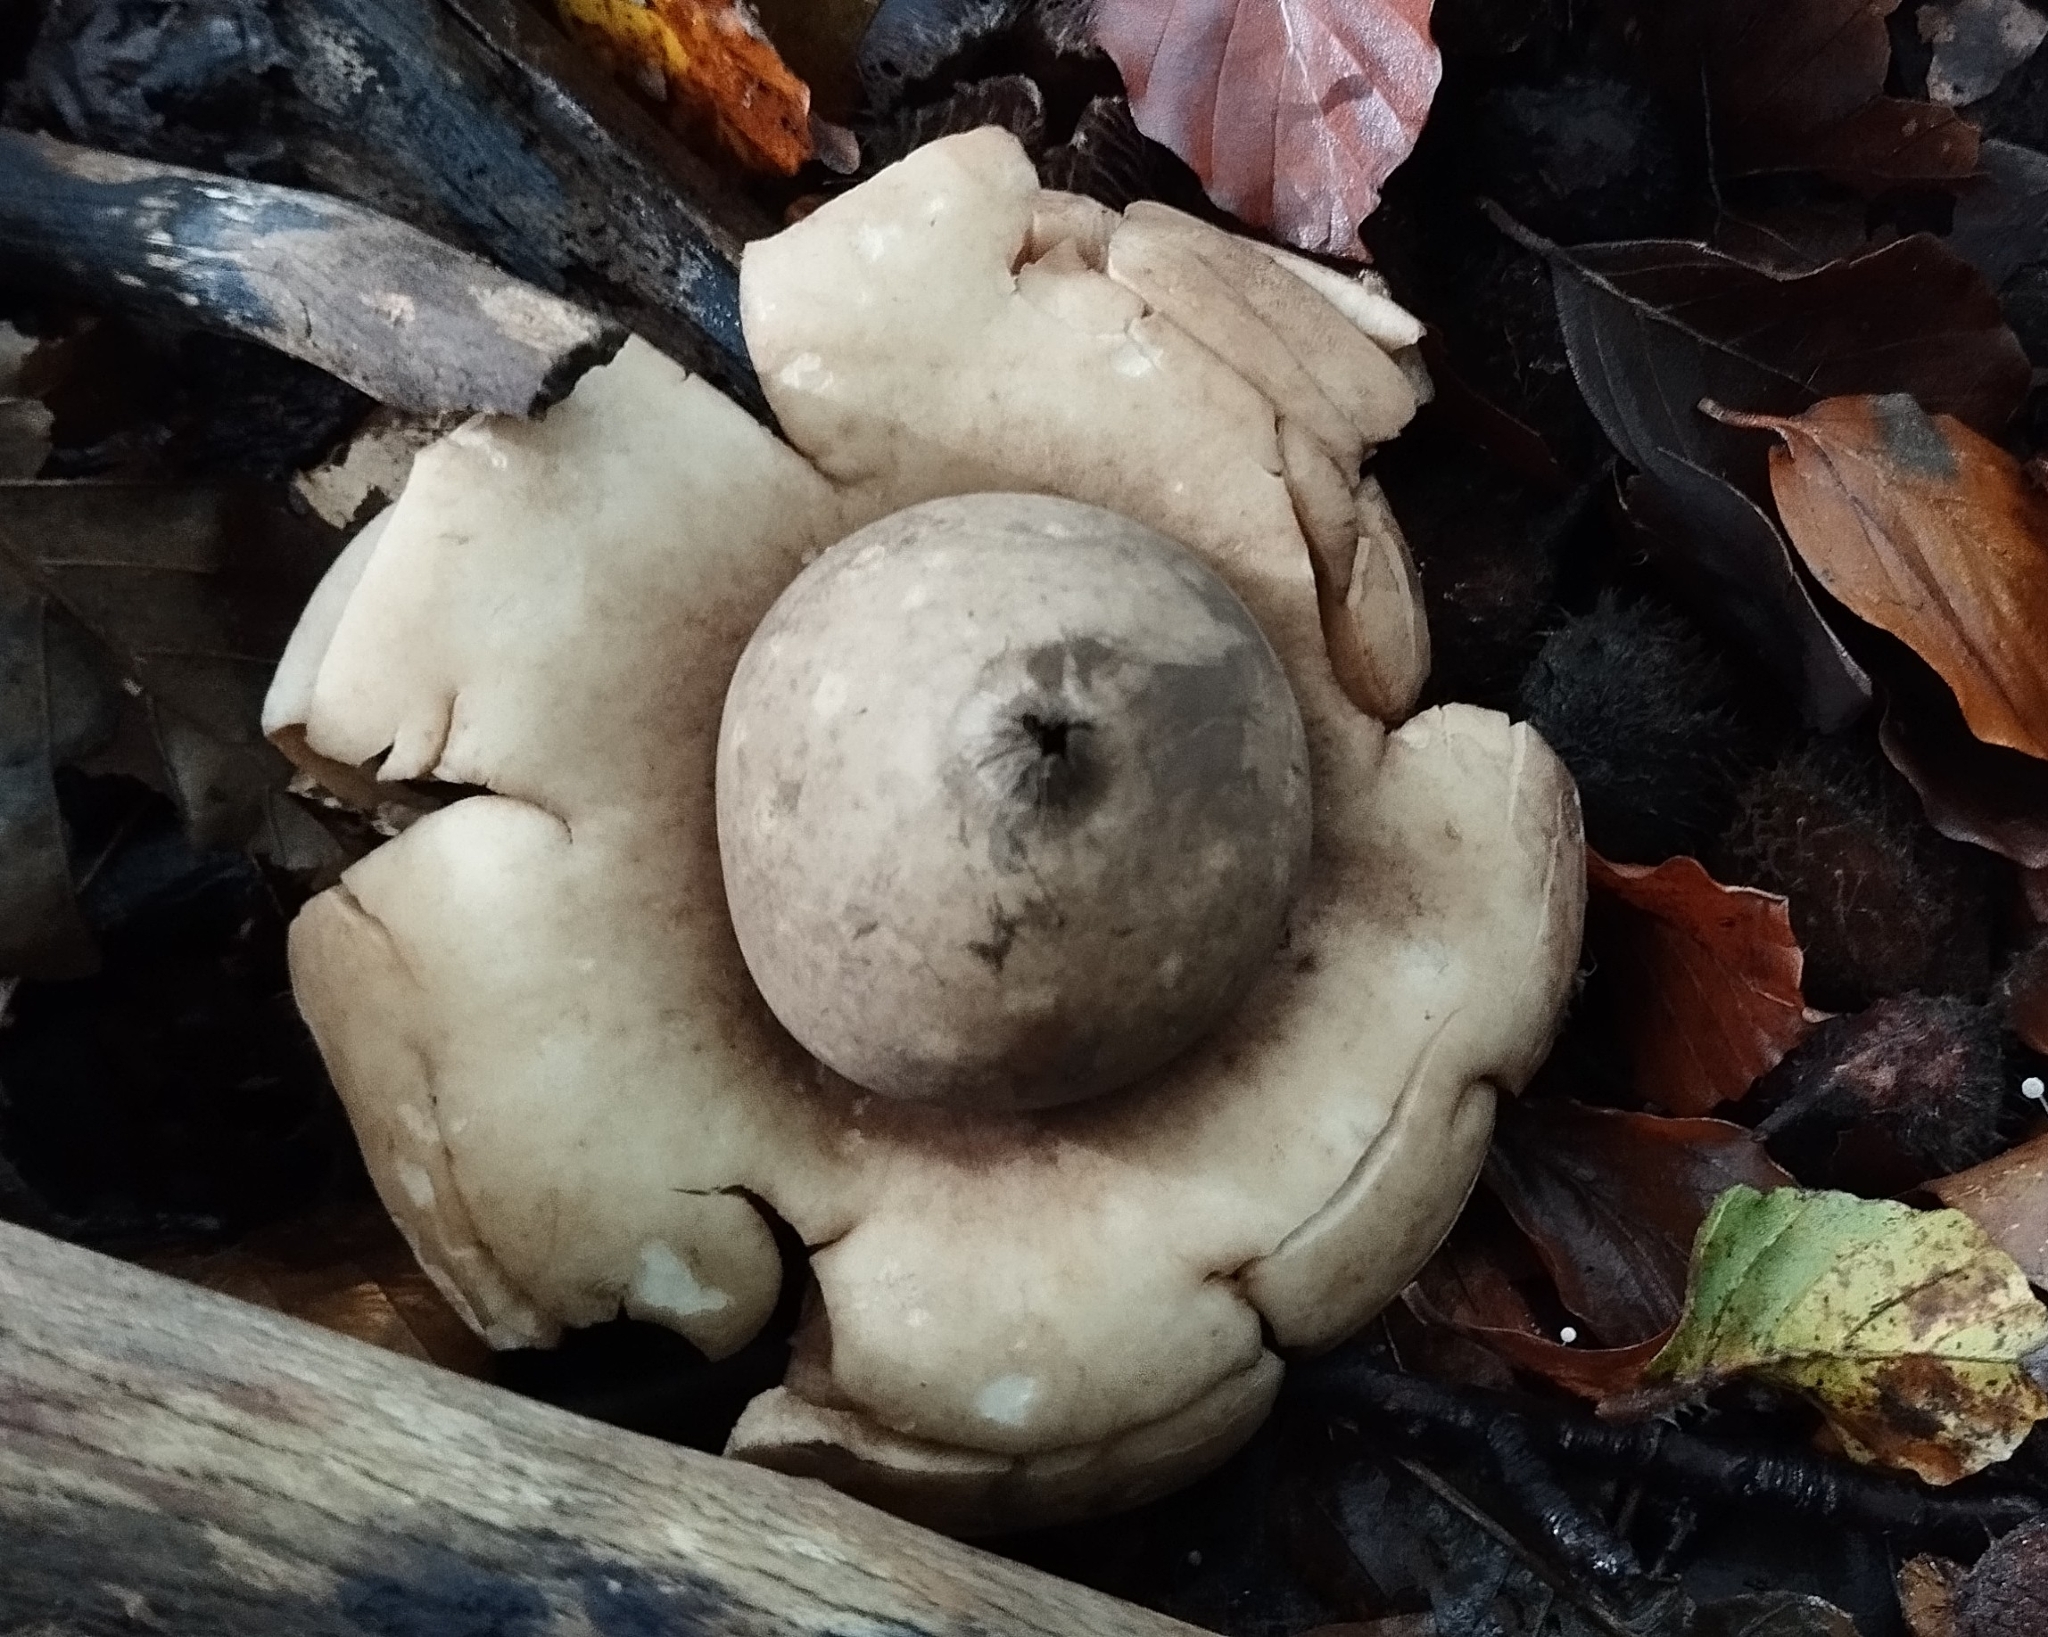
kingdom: Fungi
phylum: Basidiomycota
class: Agaricomycetes
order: Geastrales
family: Geastraceae
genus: Geastrum
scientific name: Geastrum triplex
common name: Collared earthstar
